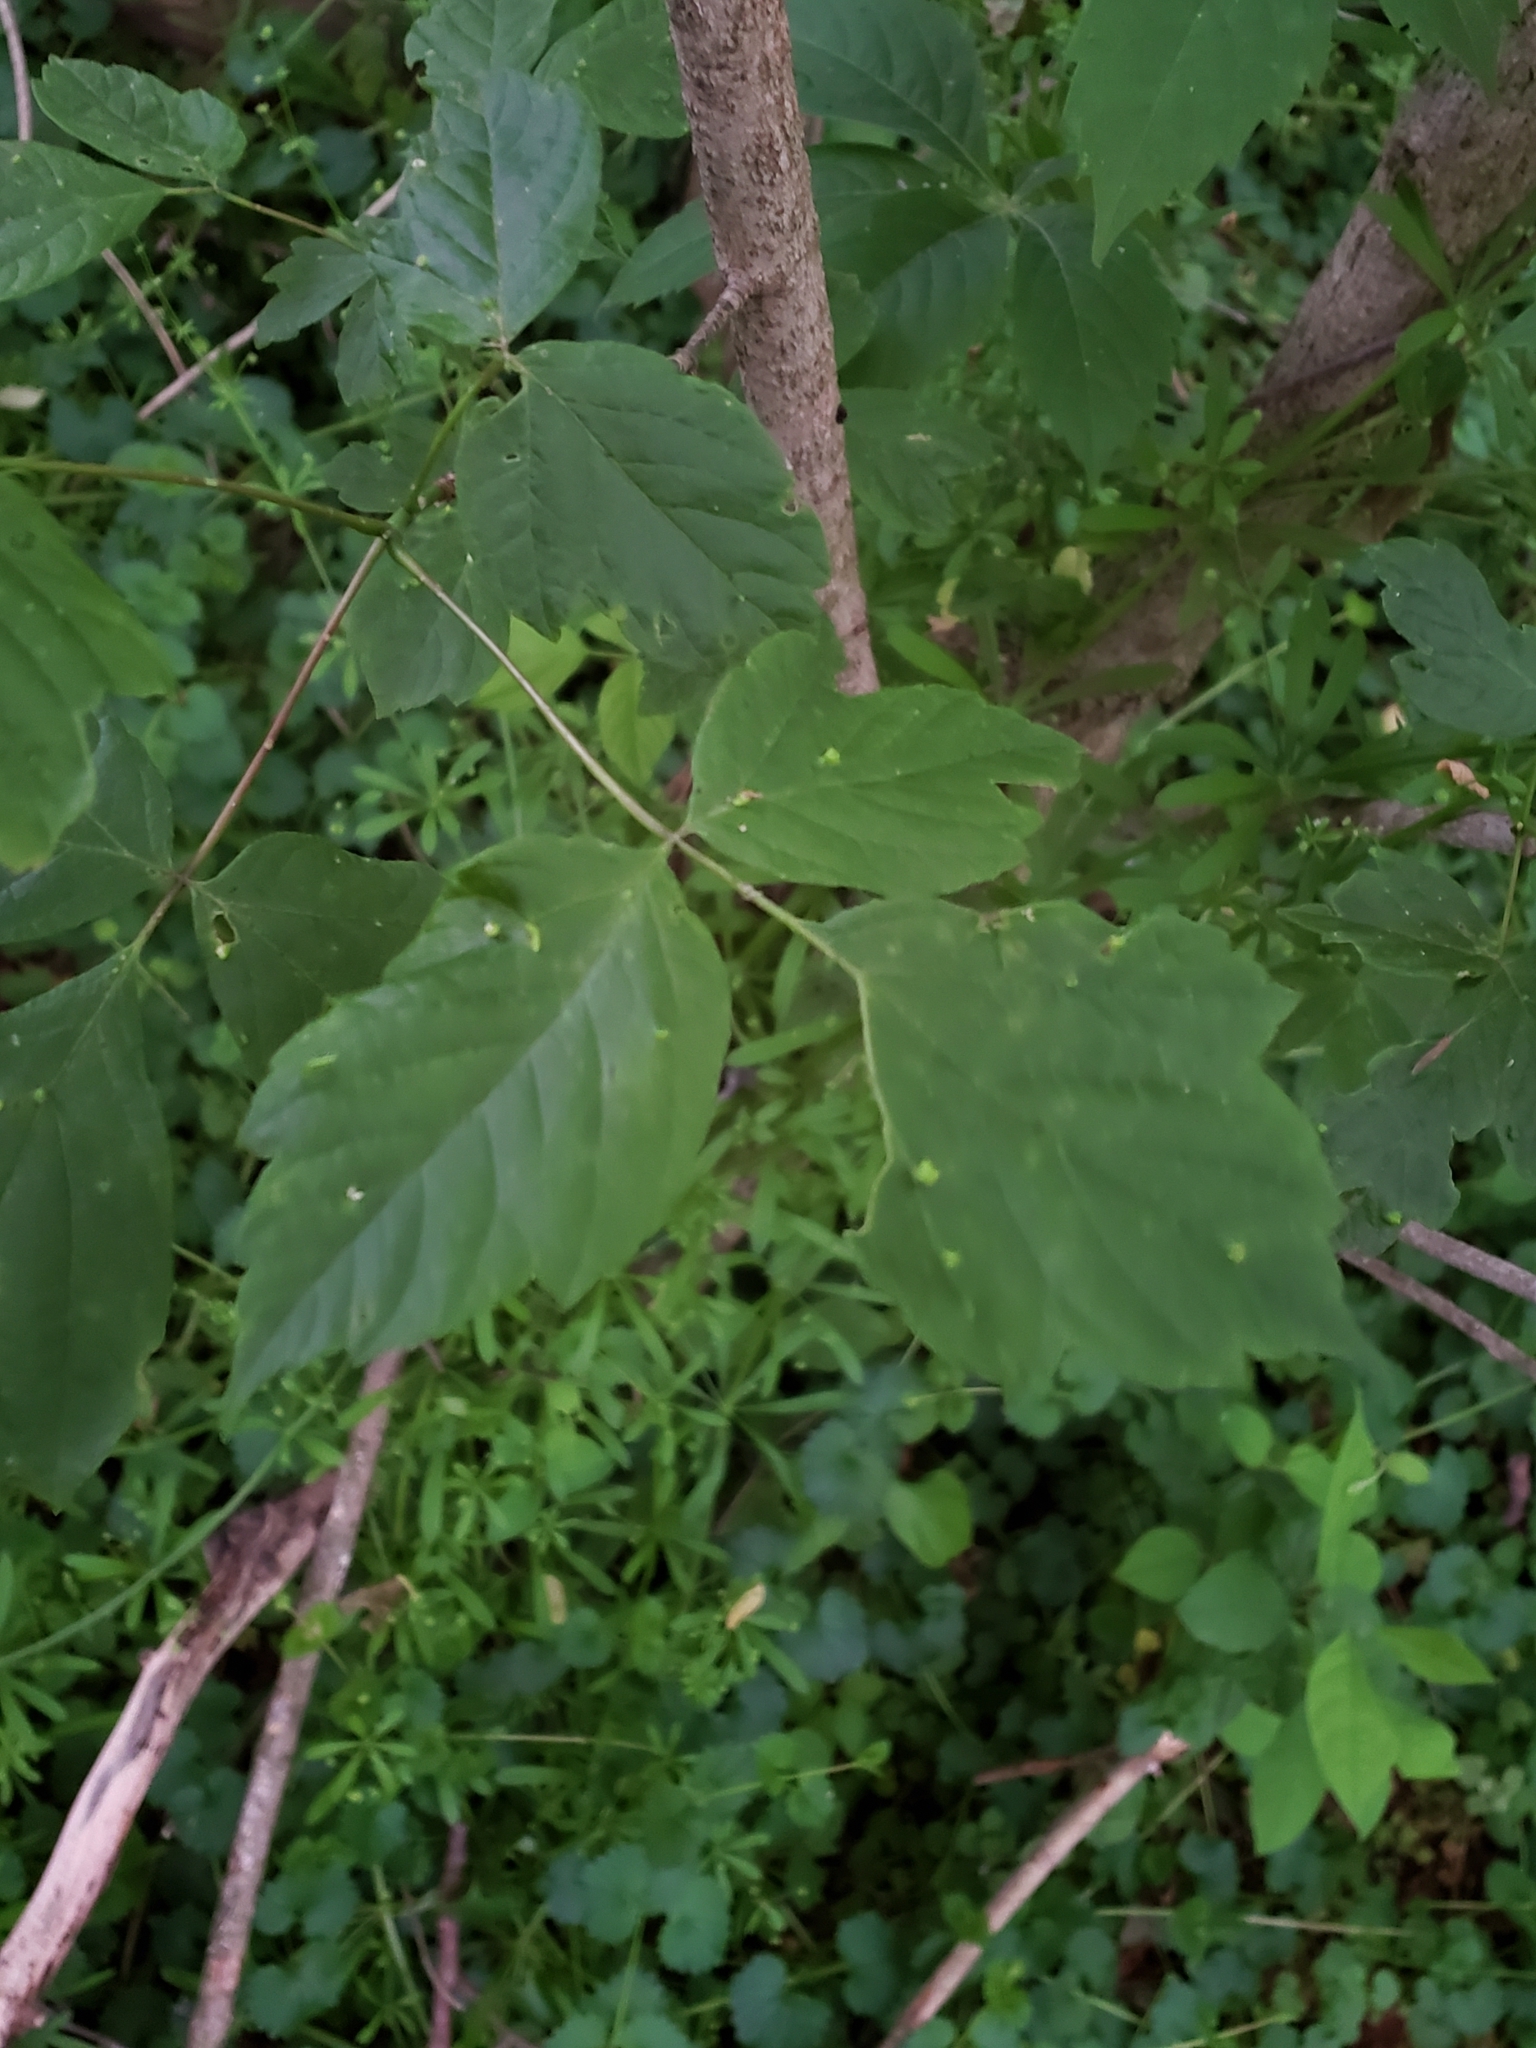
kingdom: Plantae
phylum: Tracheophyta
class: Magnoliopsida
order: Sapindales
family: Sapindaceae
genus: Acer
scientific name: Acer negundo
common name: Ashleaf maple
